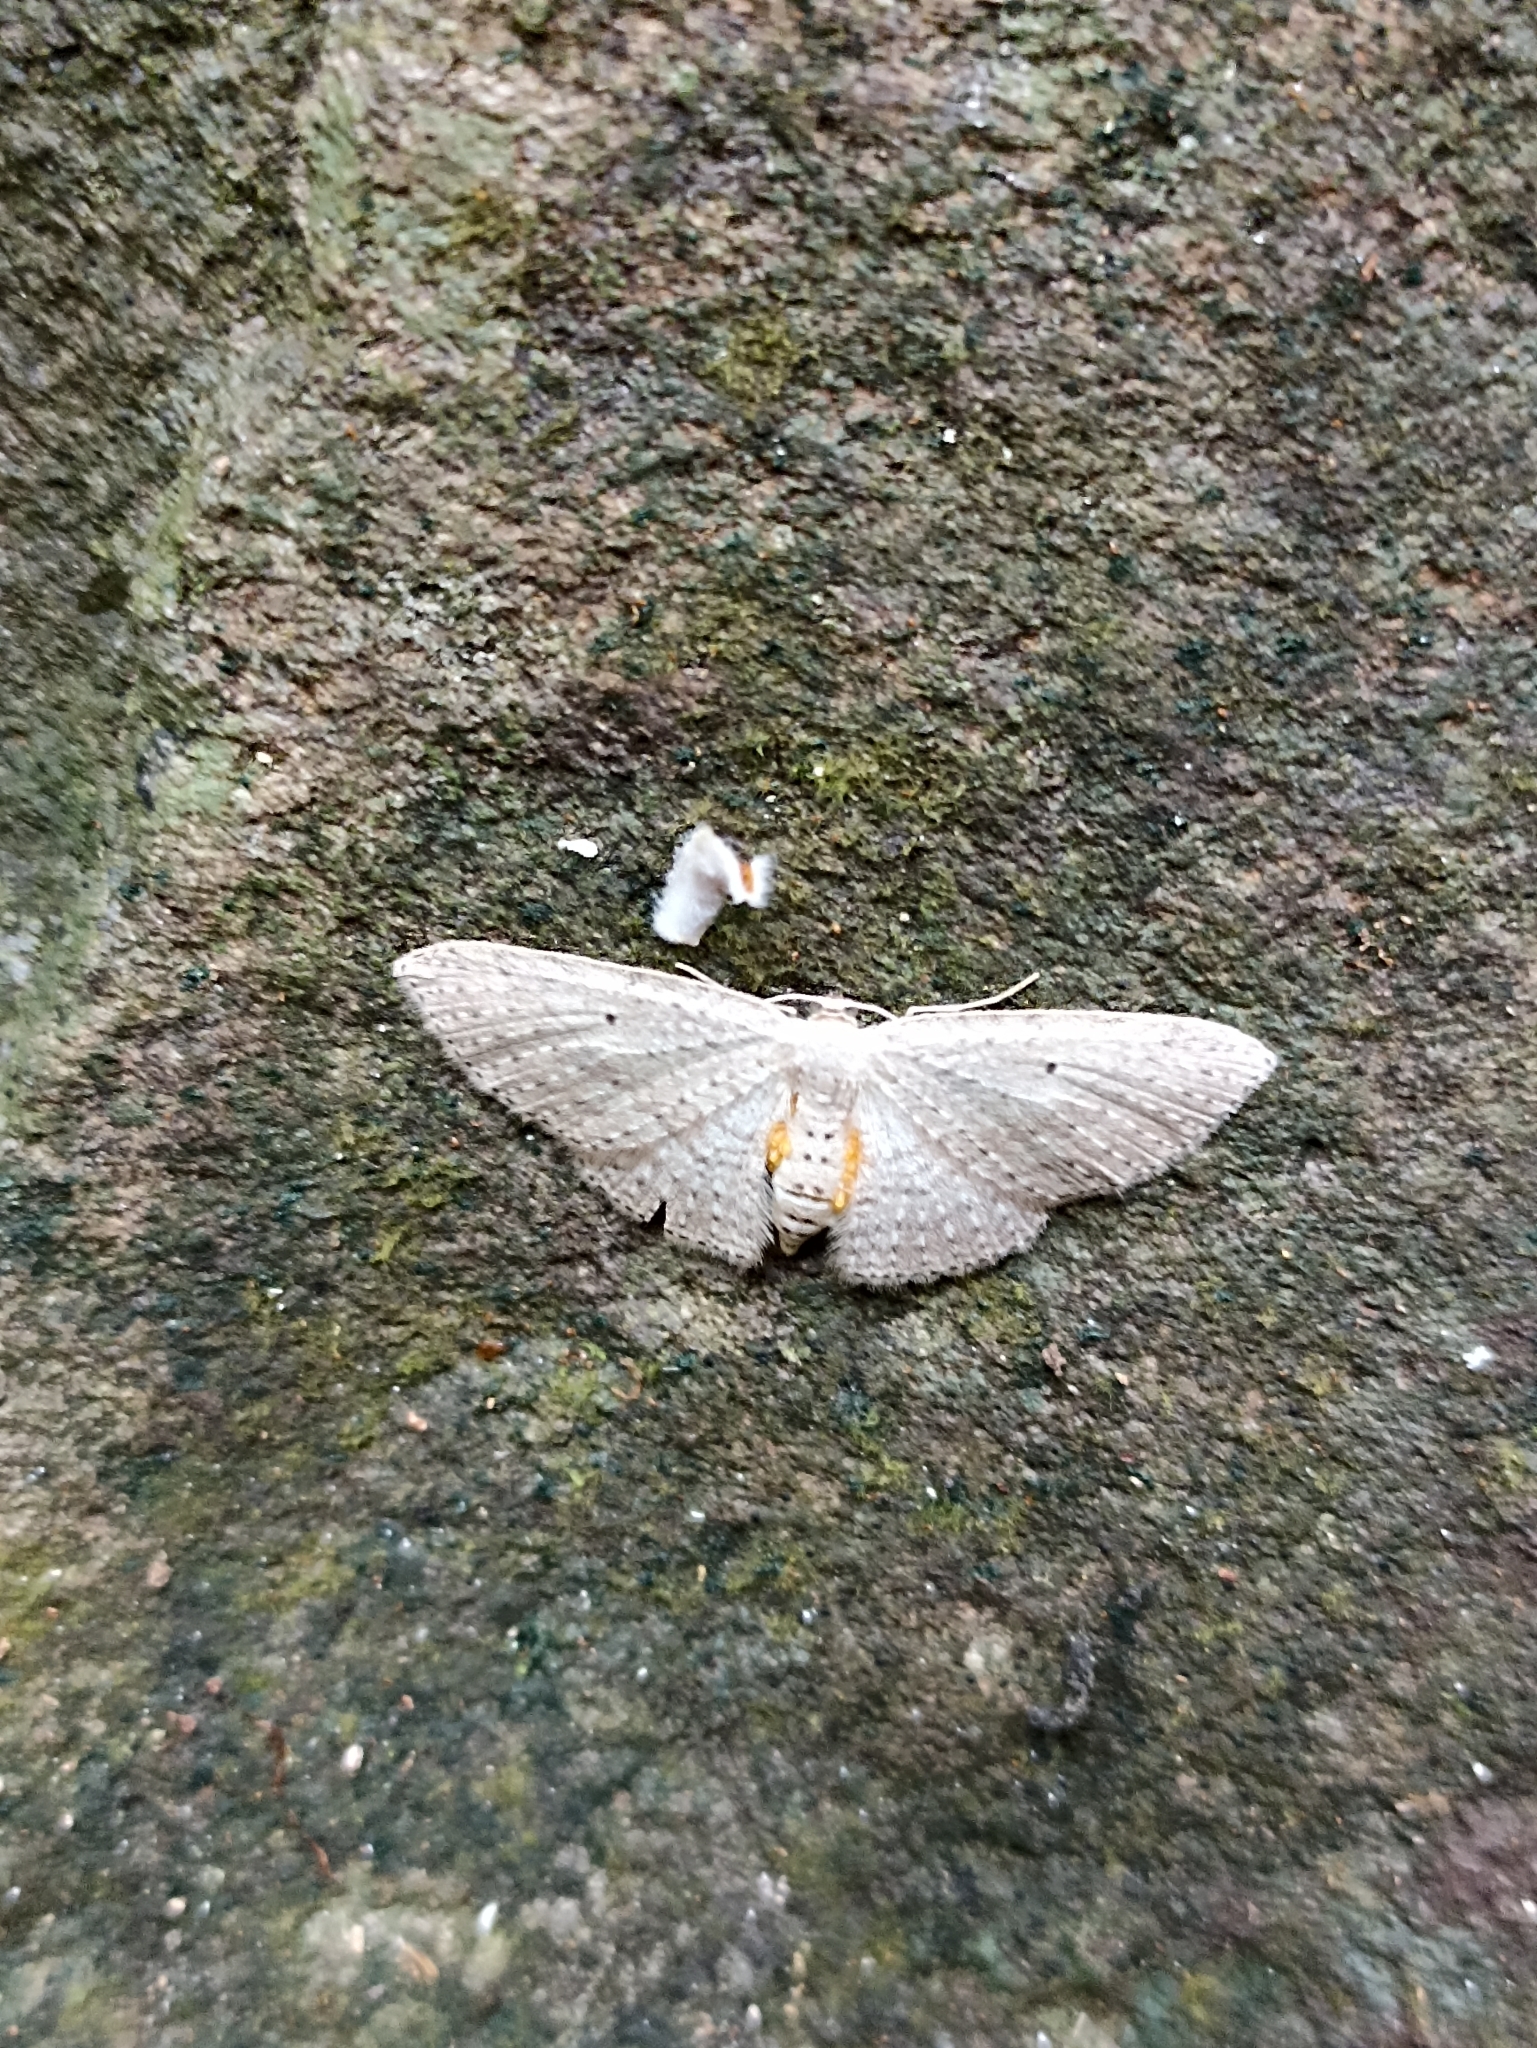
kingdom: Animalia
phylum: Arthropoda
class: Insecta
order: Lepidoptera
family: Geometridae
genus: Poecilasthena
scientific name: Poecilasthena schistaria
